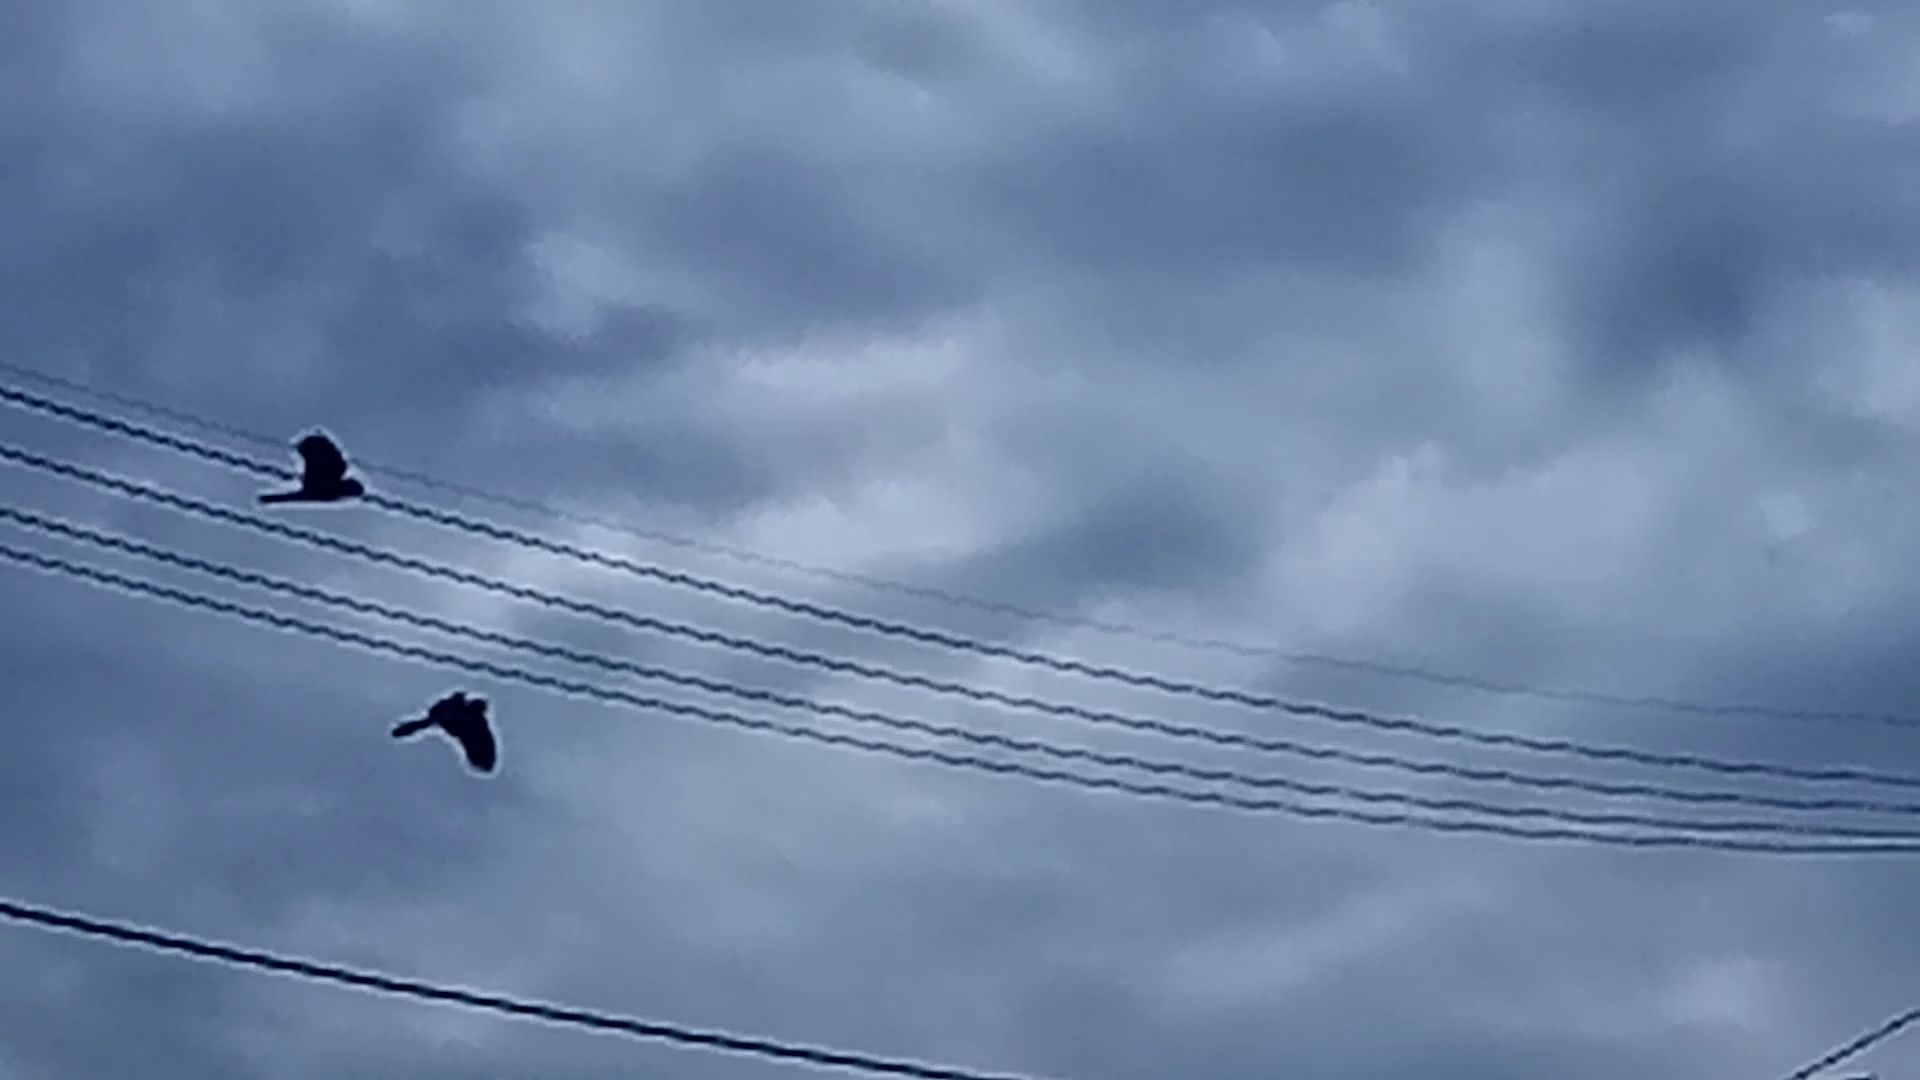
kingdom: Animalia
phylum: Chordata
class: Aves
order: Psittaciformes
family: Cacatuidae
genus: Zanda
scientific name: Zanda funerea
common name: Yellow-tailed black-cockatoo
